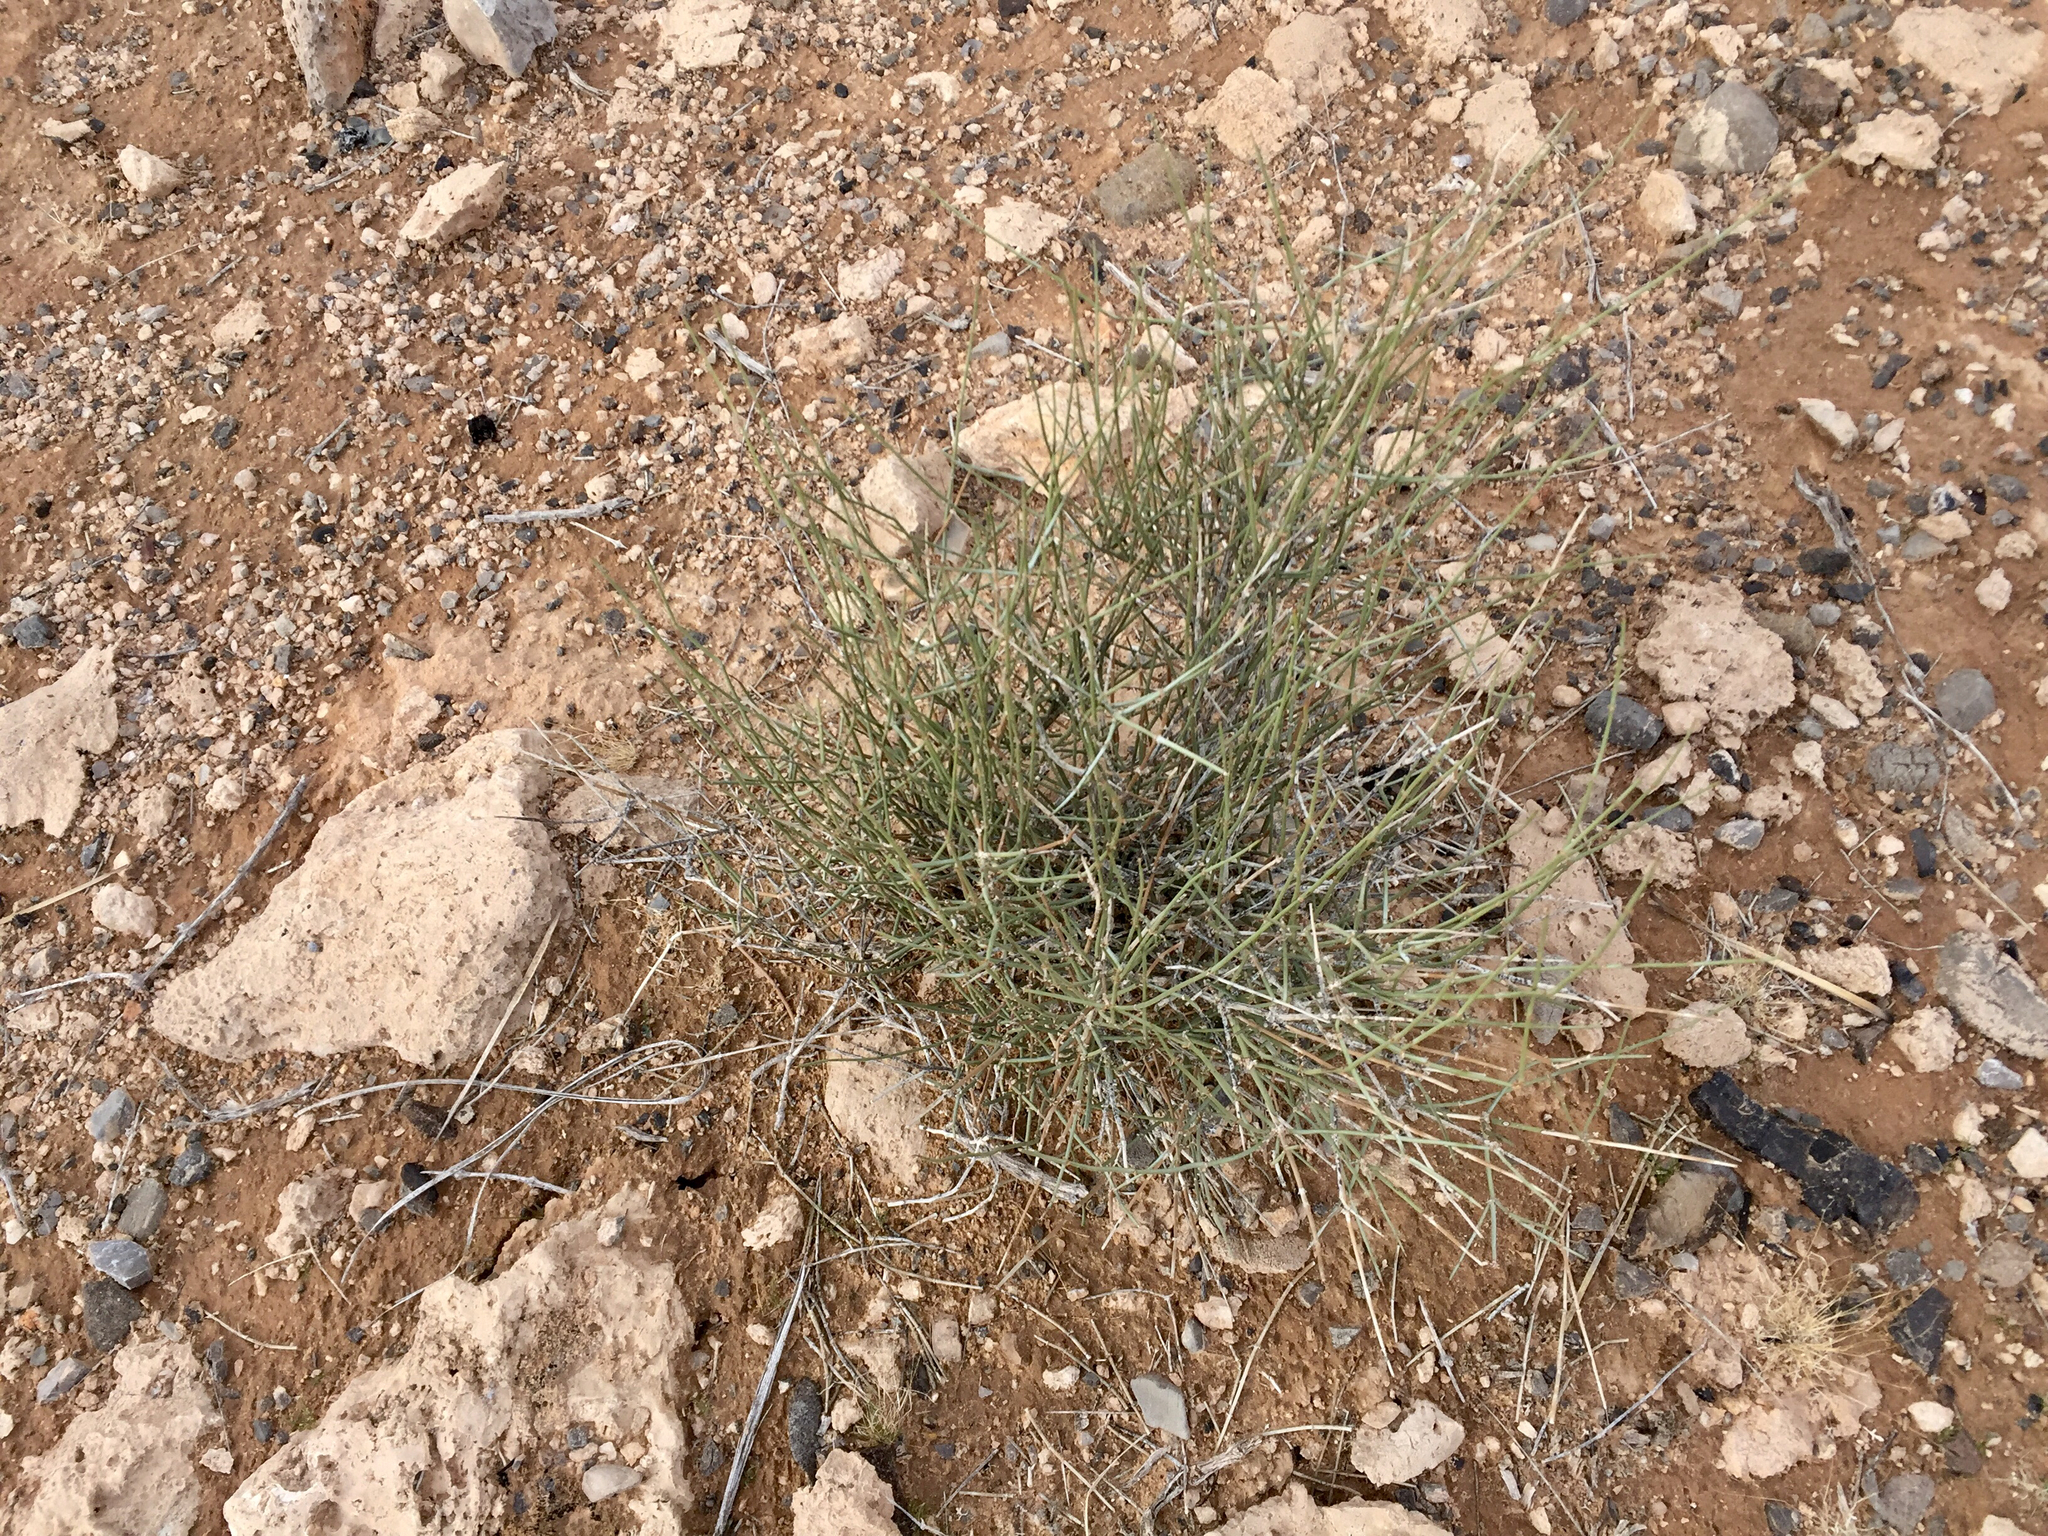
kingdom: Plantae
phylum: Tracheophyta
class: Gnetopsida
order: Ephedrales
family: Ephedraceae
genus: Ephedra
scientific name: Ephedra torreyana
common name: Torrey ephedra
